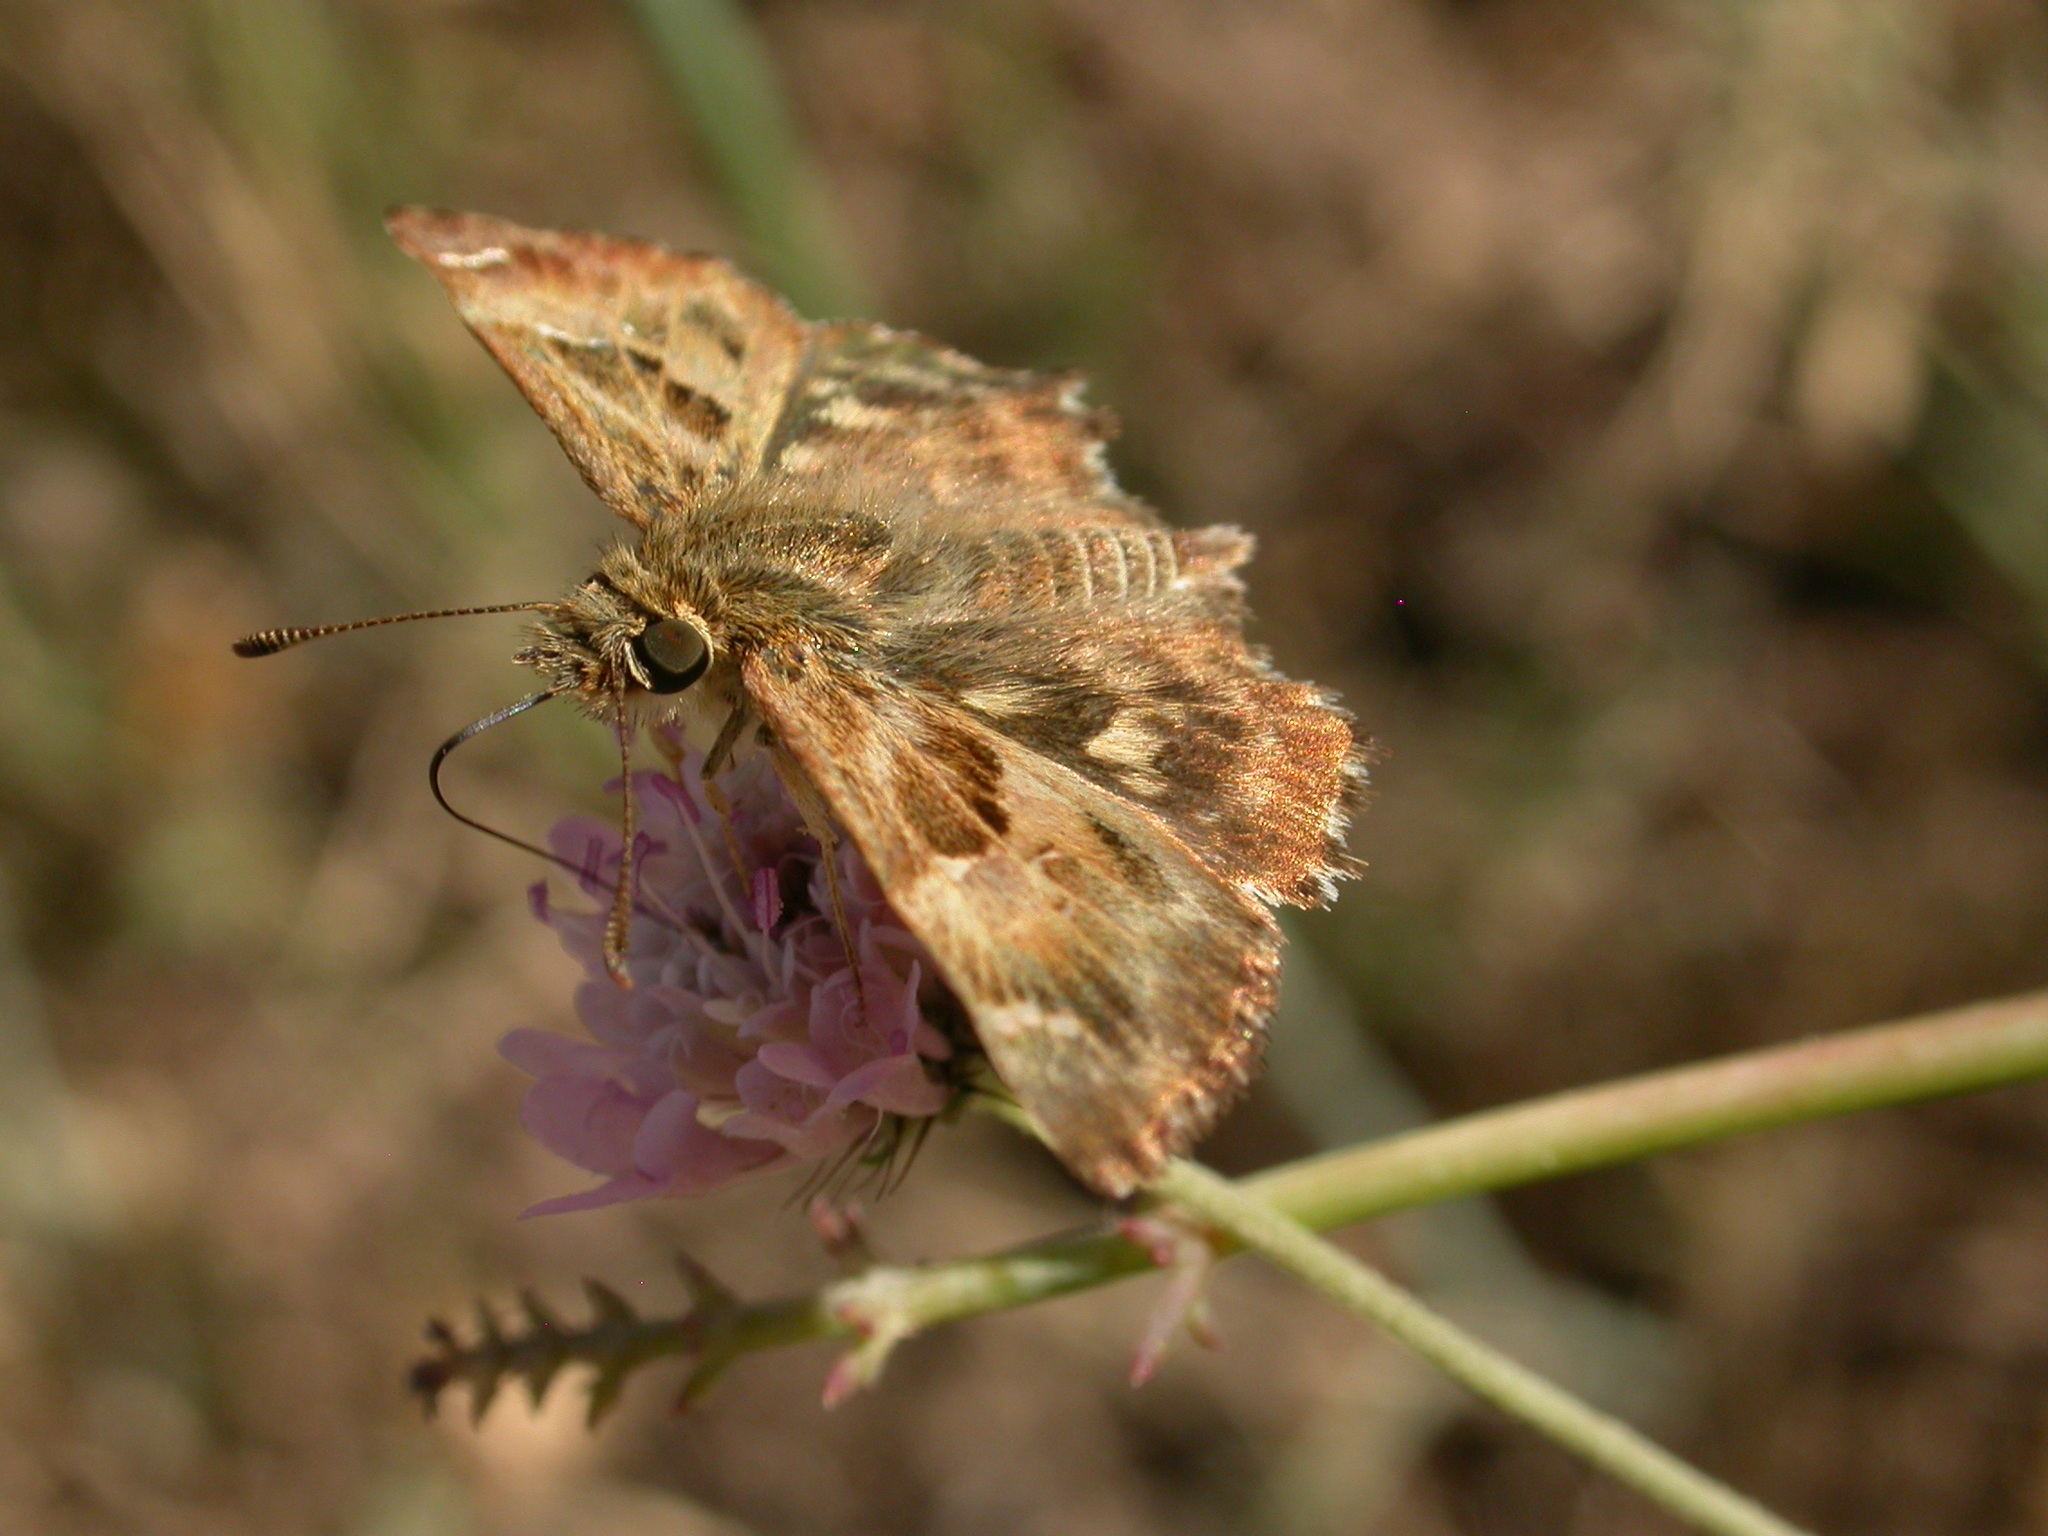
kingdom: Animalia
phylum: Arthropoda
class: Insecta
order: Lepidoptera
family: Hesperiidae
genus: Carcharodus
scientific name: Carcharodus alceae
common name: Mallow skipper
